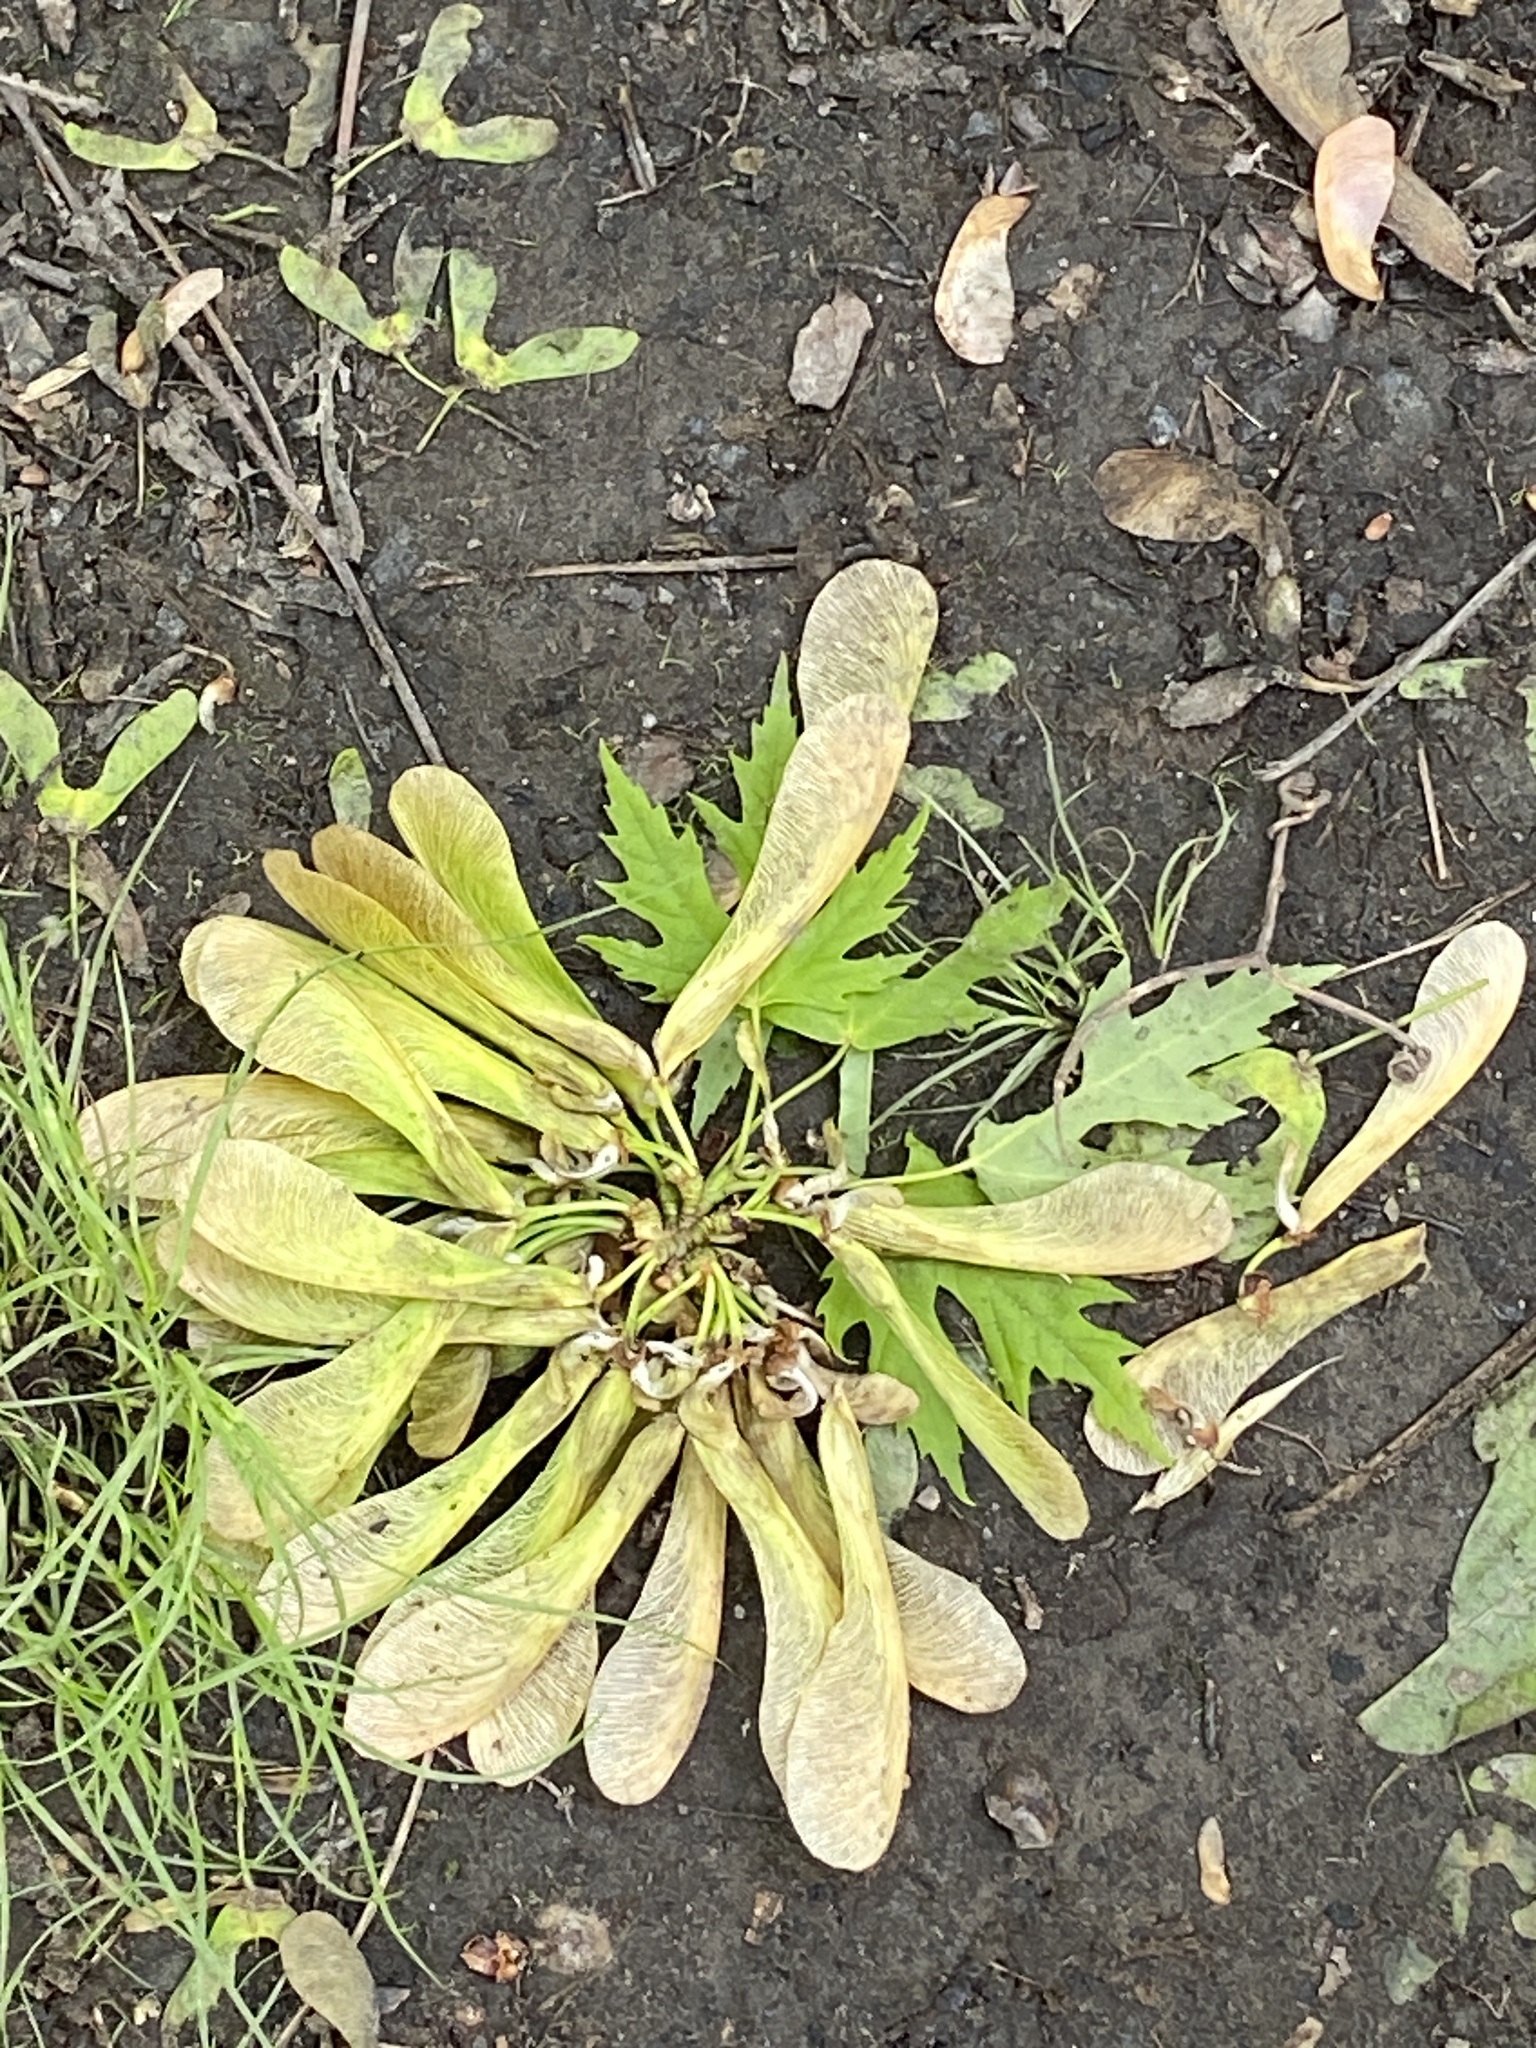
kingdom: Plantae
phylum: Tracheophyta
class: Magnoliopsida
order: Sapindales
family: Sapindaceae
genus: Acer
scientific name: Acer saccharinum
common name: Silver maple
